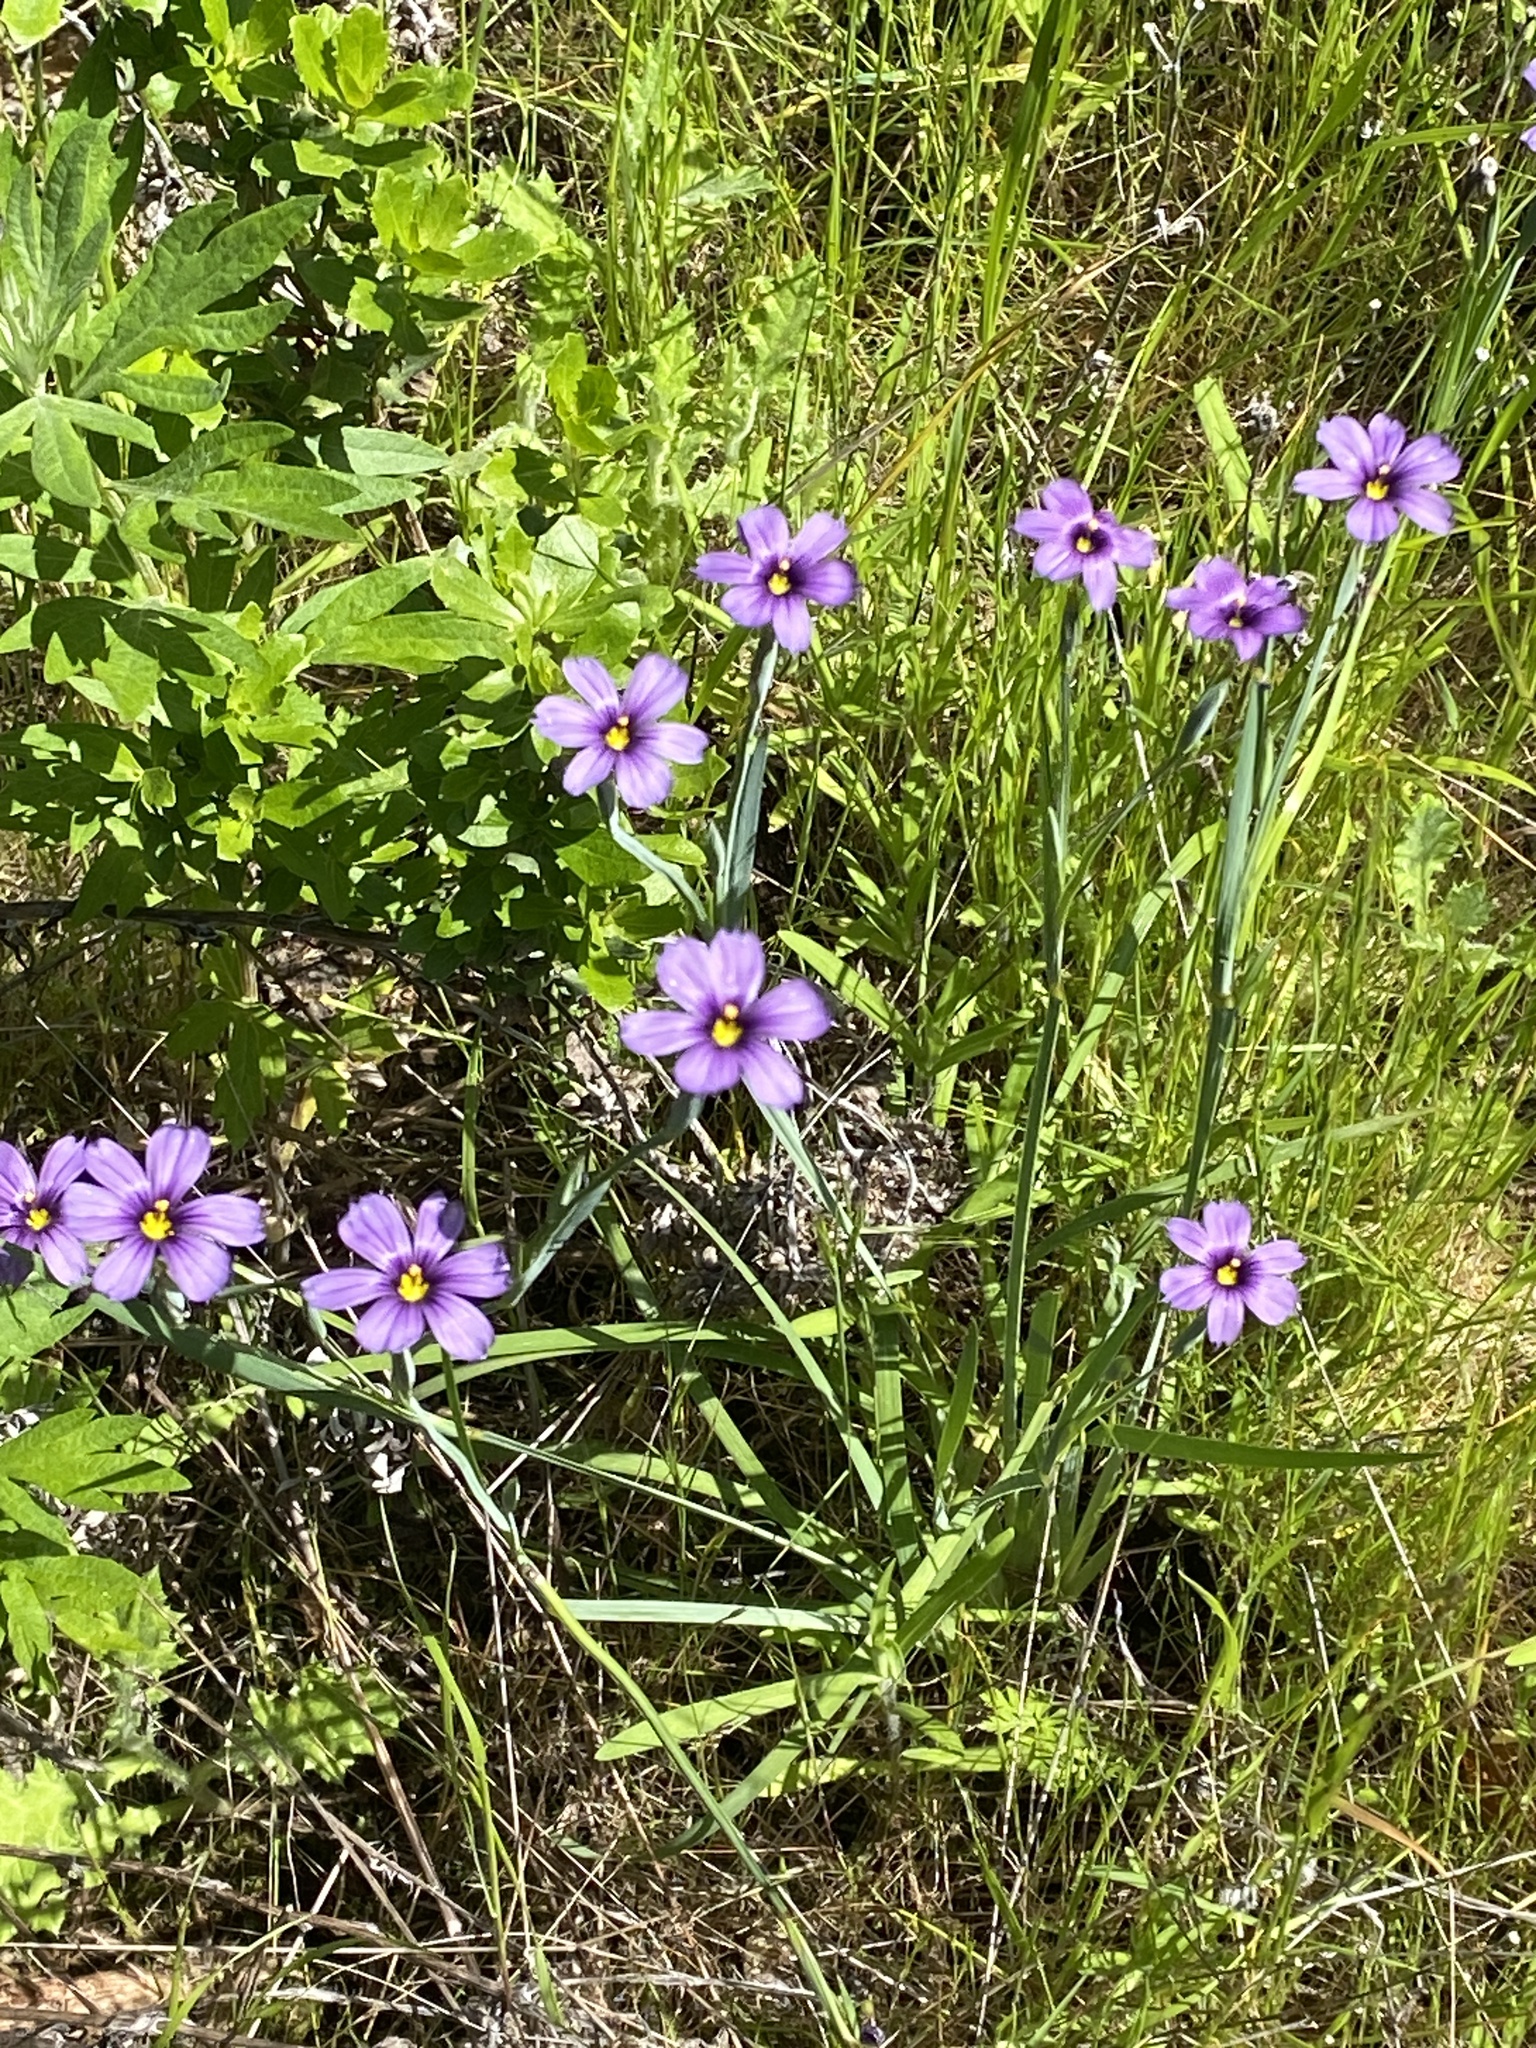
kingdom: Plantae
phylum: Tracheophyta
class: Liliopsida
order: Asparagales
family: Iridaceae
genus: Sisyrinchium
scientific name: Sisyrinchium bellum
